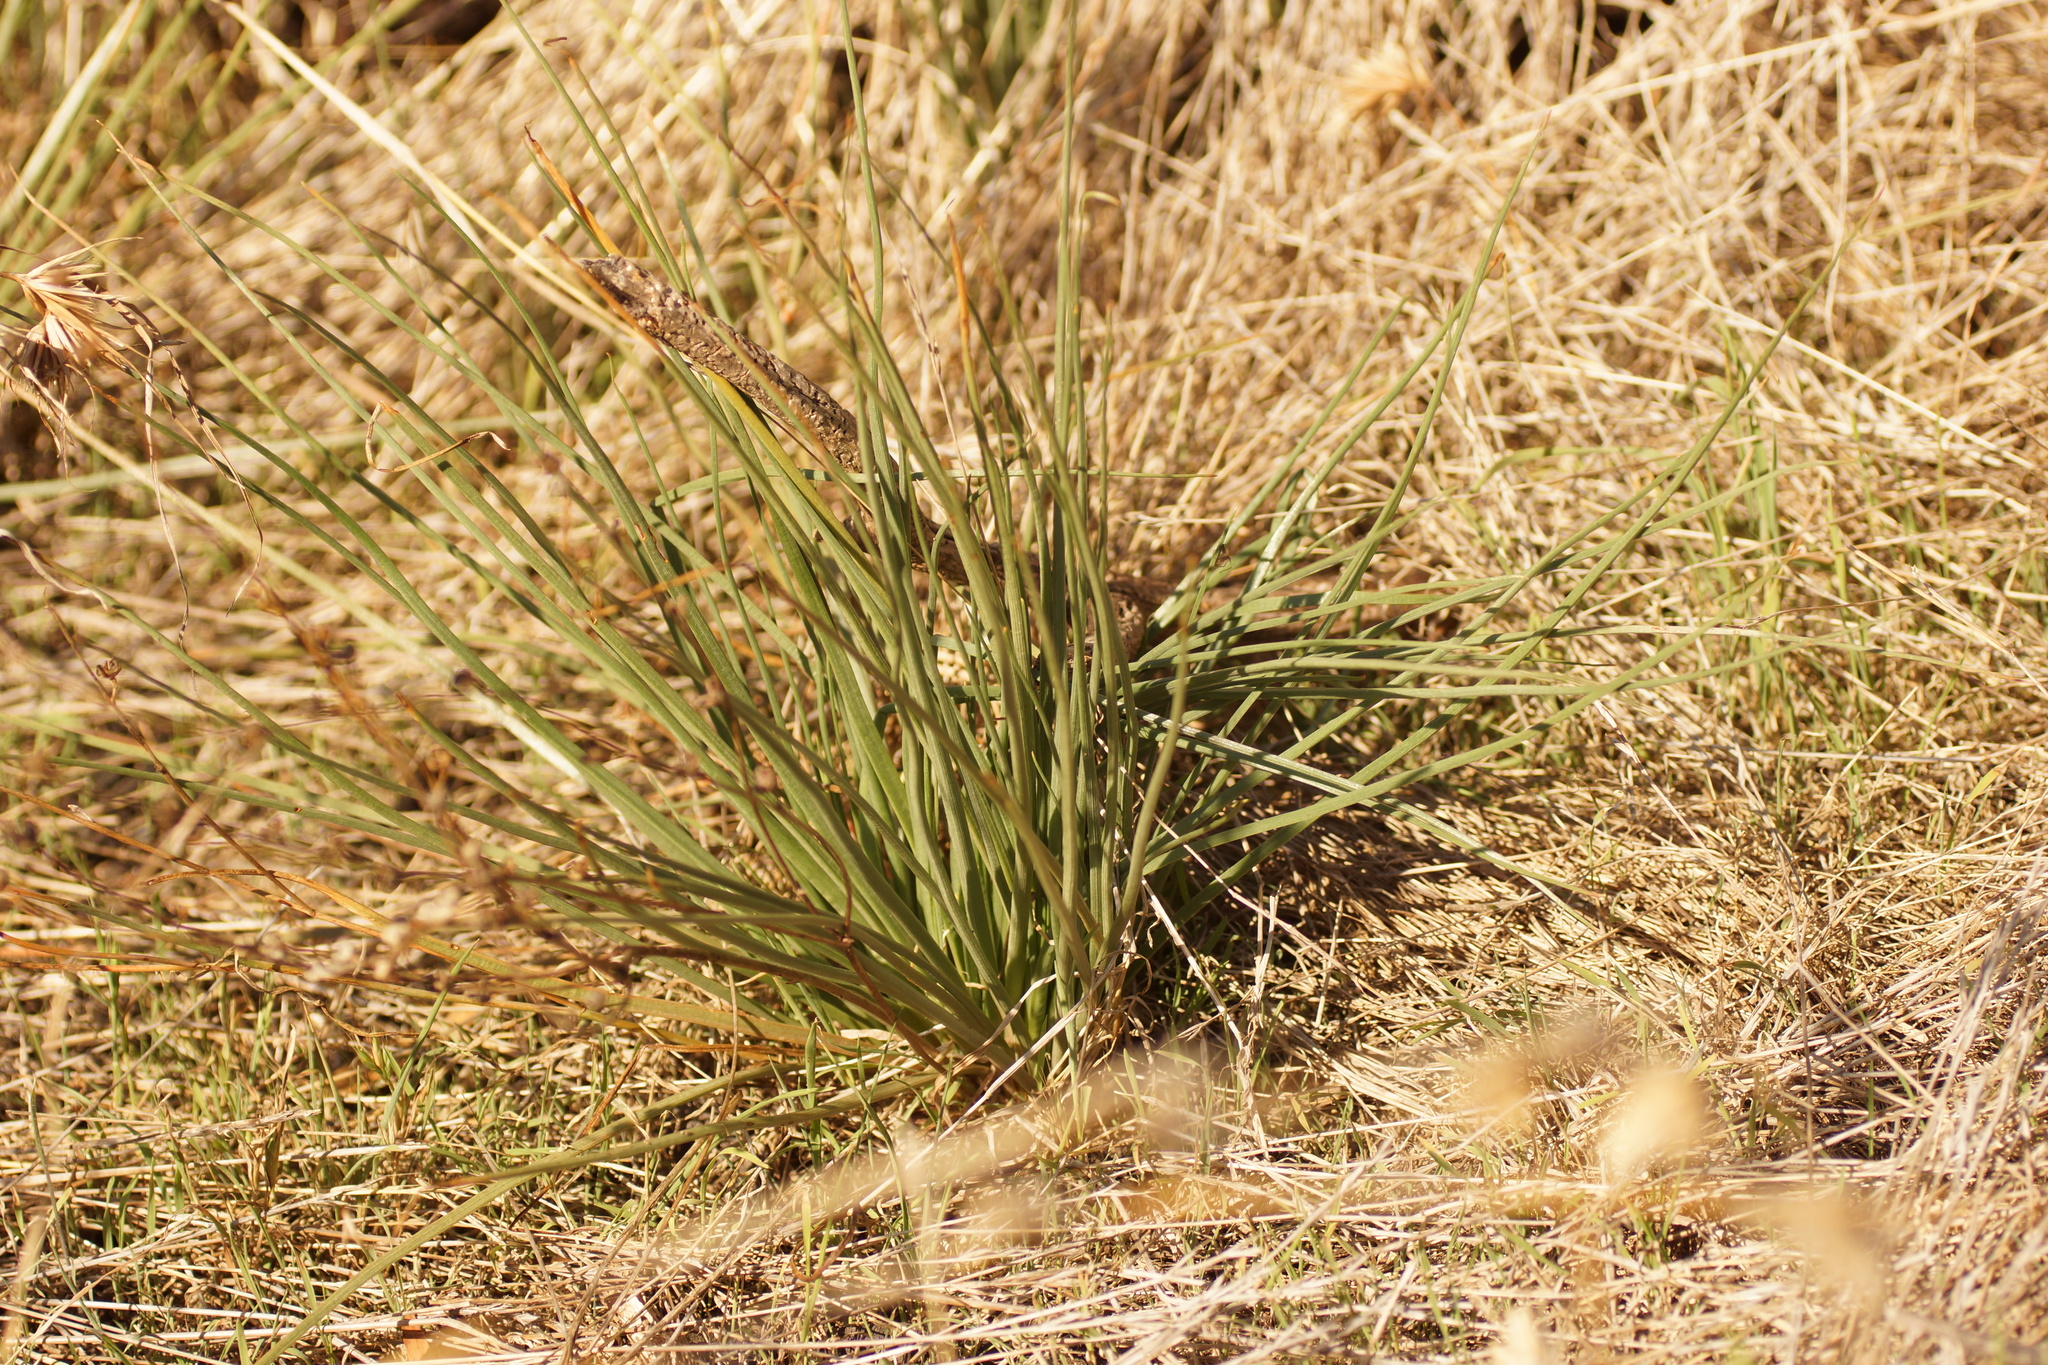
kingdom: Plantae
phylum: Tracheophyta
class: Liliopsida
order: Asparagales
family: Asphodelaceae
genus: Asphodelus
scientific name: Asphodelus fistulosus
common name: Onionweed
